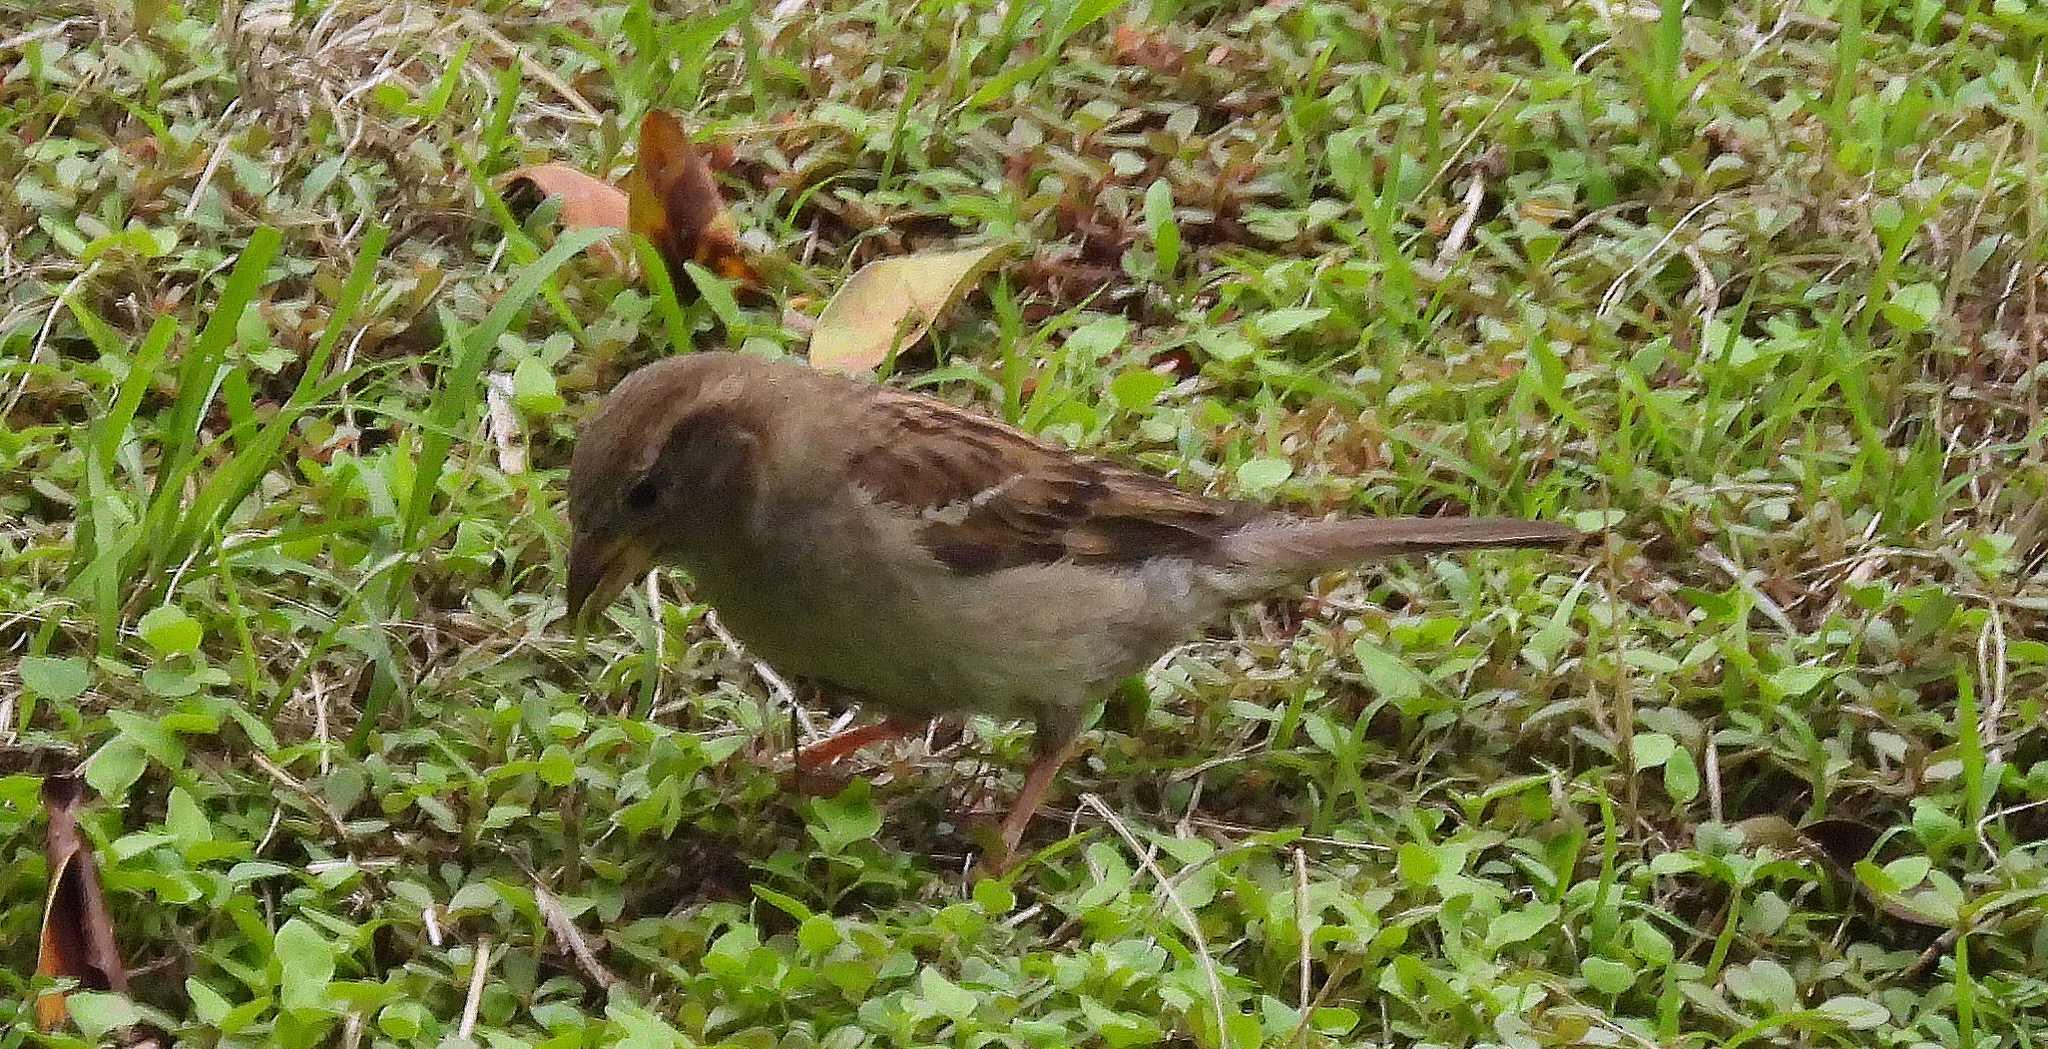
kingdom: Animalia
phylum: Chordata
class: Aves
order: Passeriformes
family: Passeridae
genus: Passer
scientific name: Passer domesticus
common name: House sparrow
